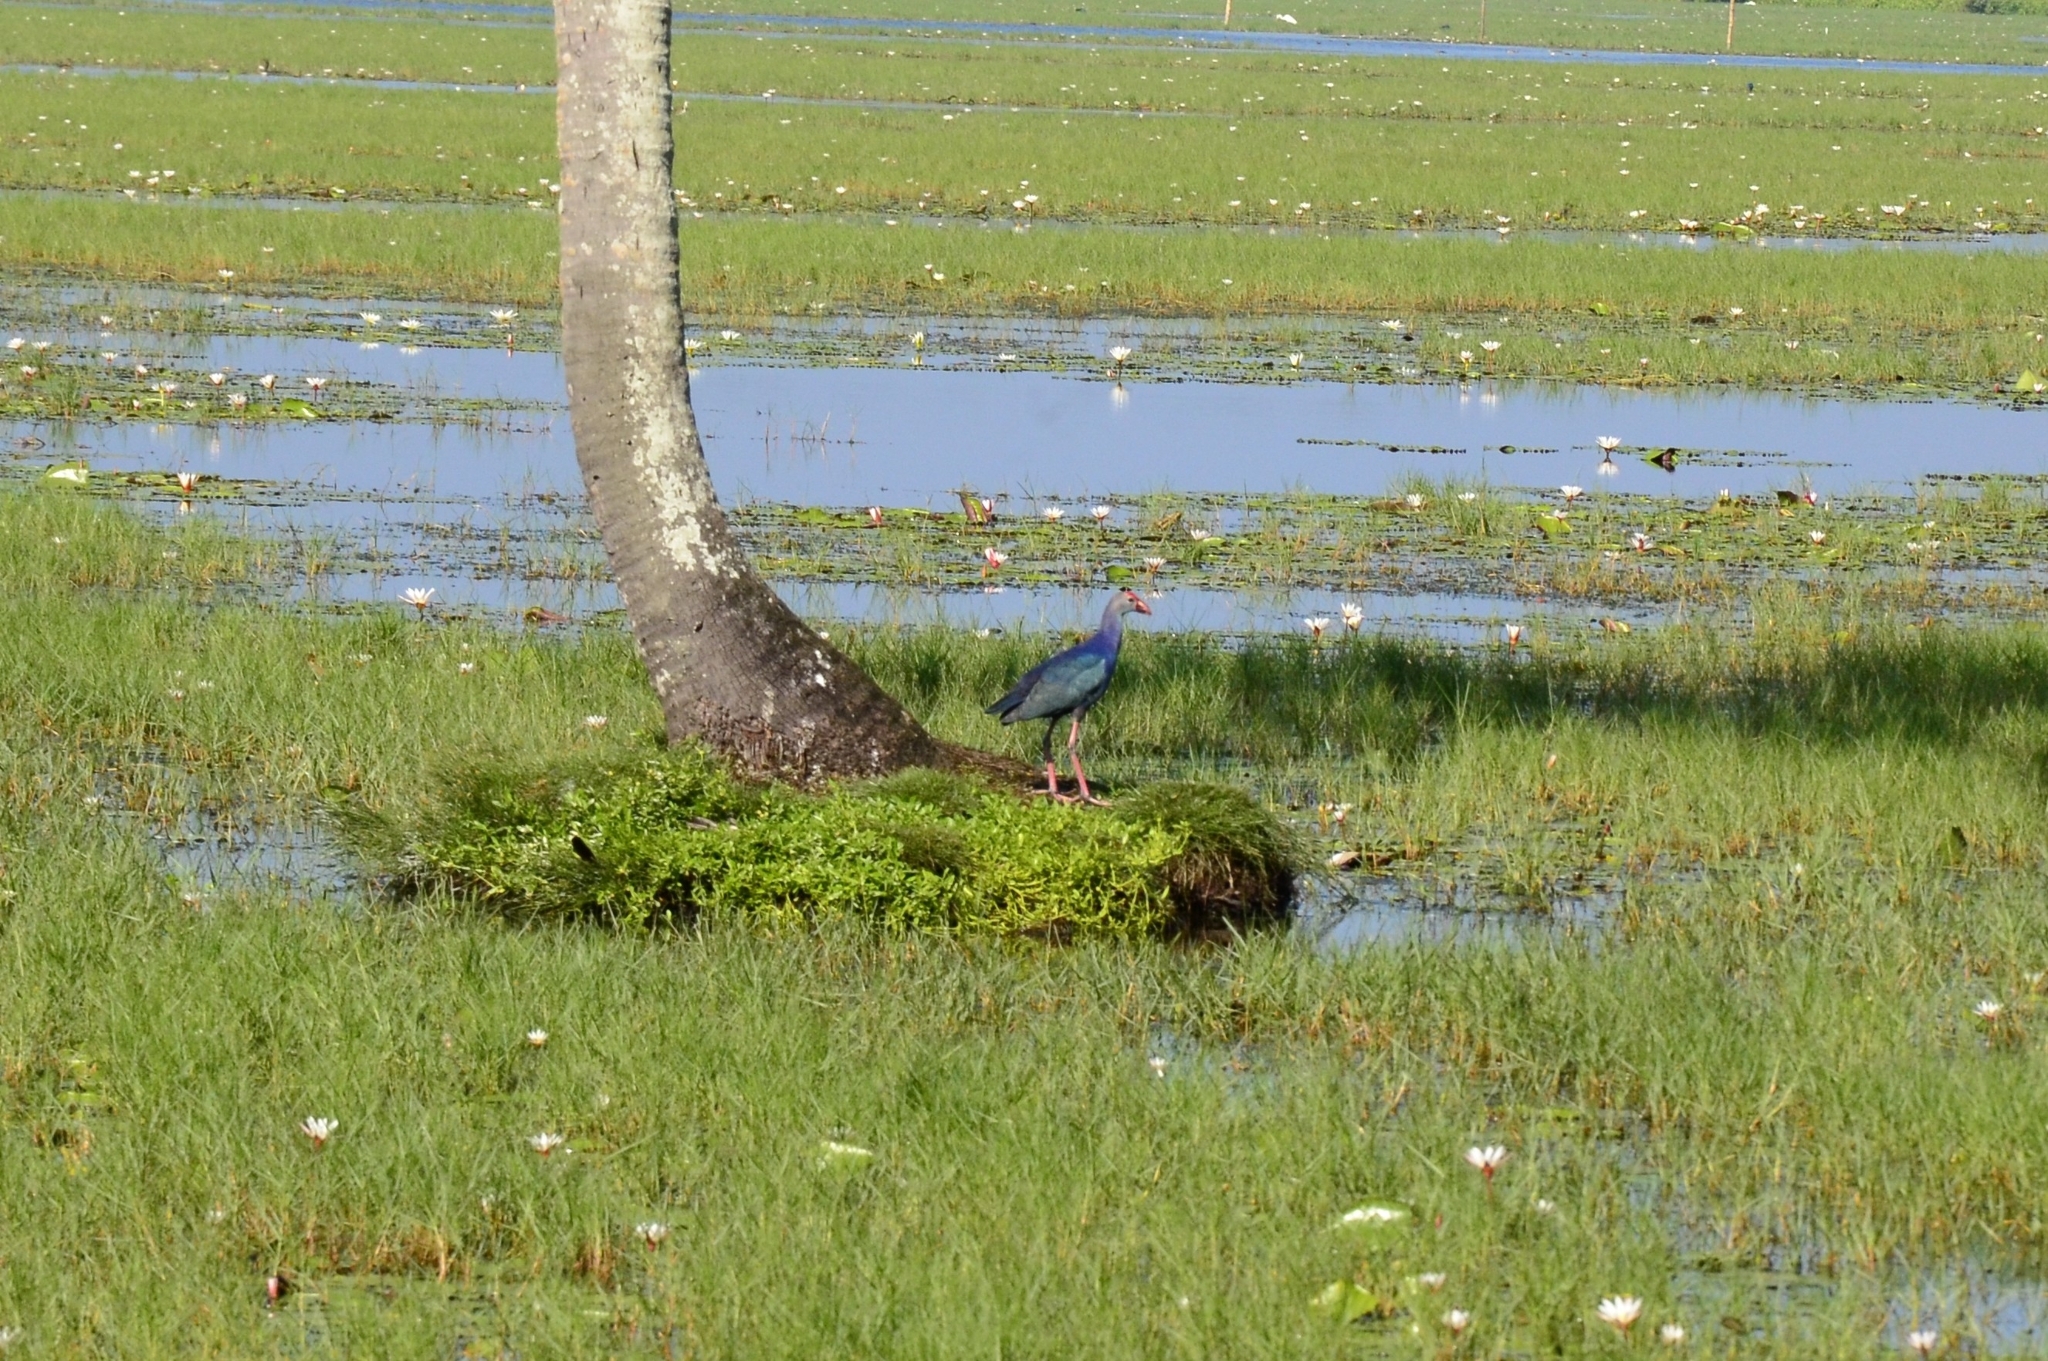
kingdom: Animalia
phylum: Chordata
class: Aves
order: Gruiformes
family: Rallidae
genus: Porphyrio
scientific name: Porphyrio porphyrio
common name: Purple swamphen
